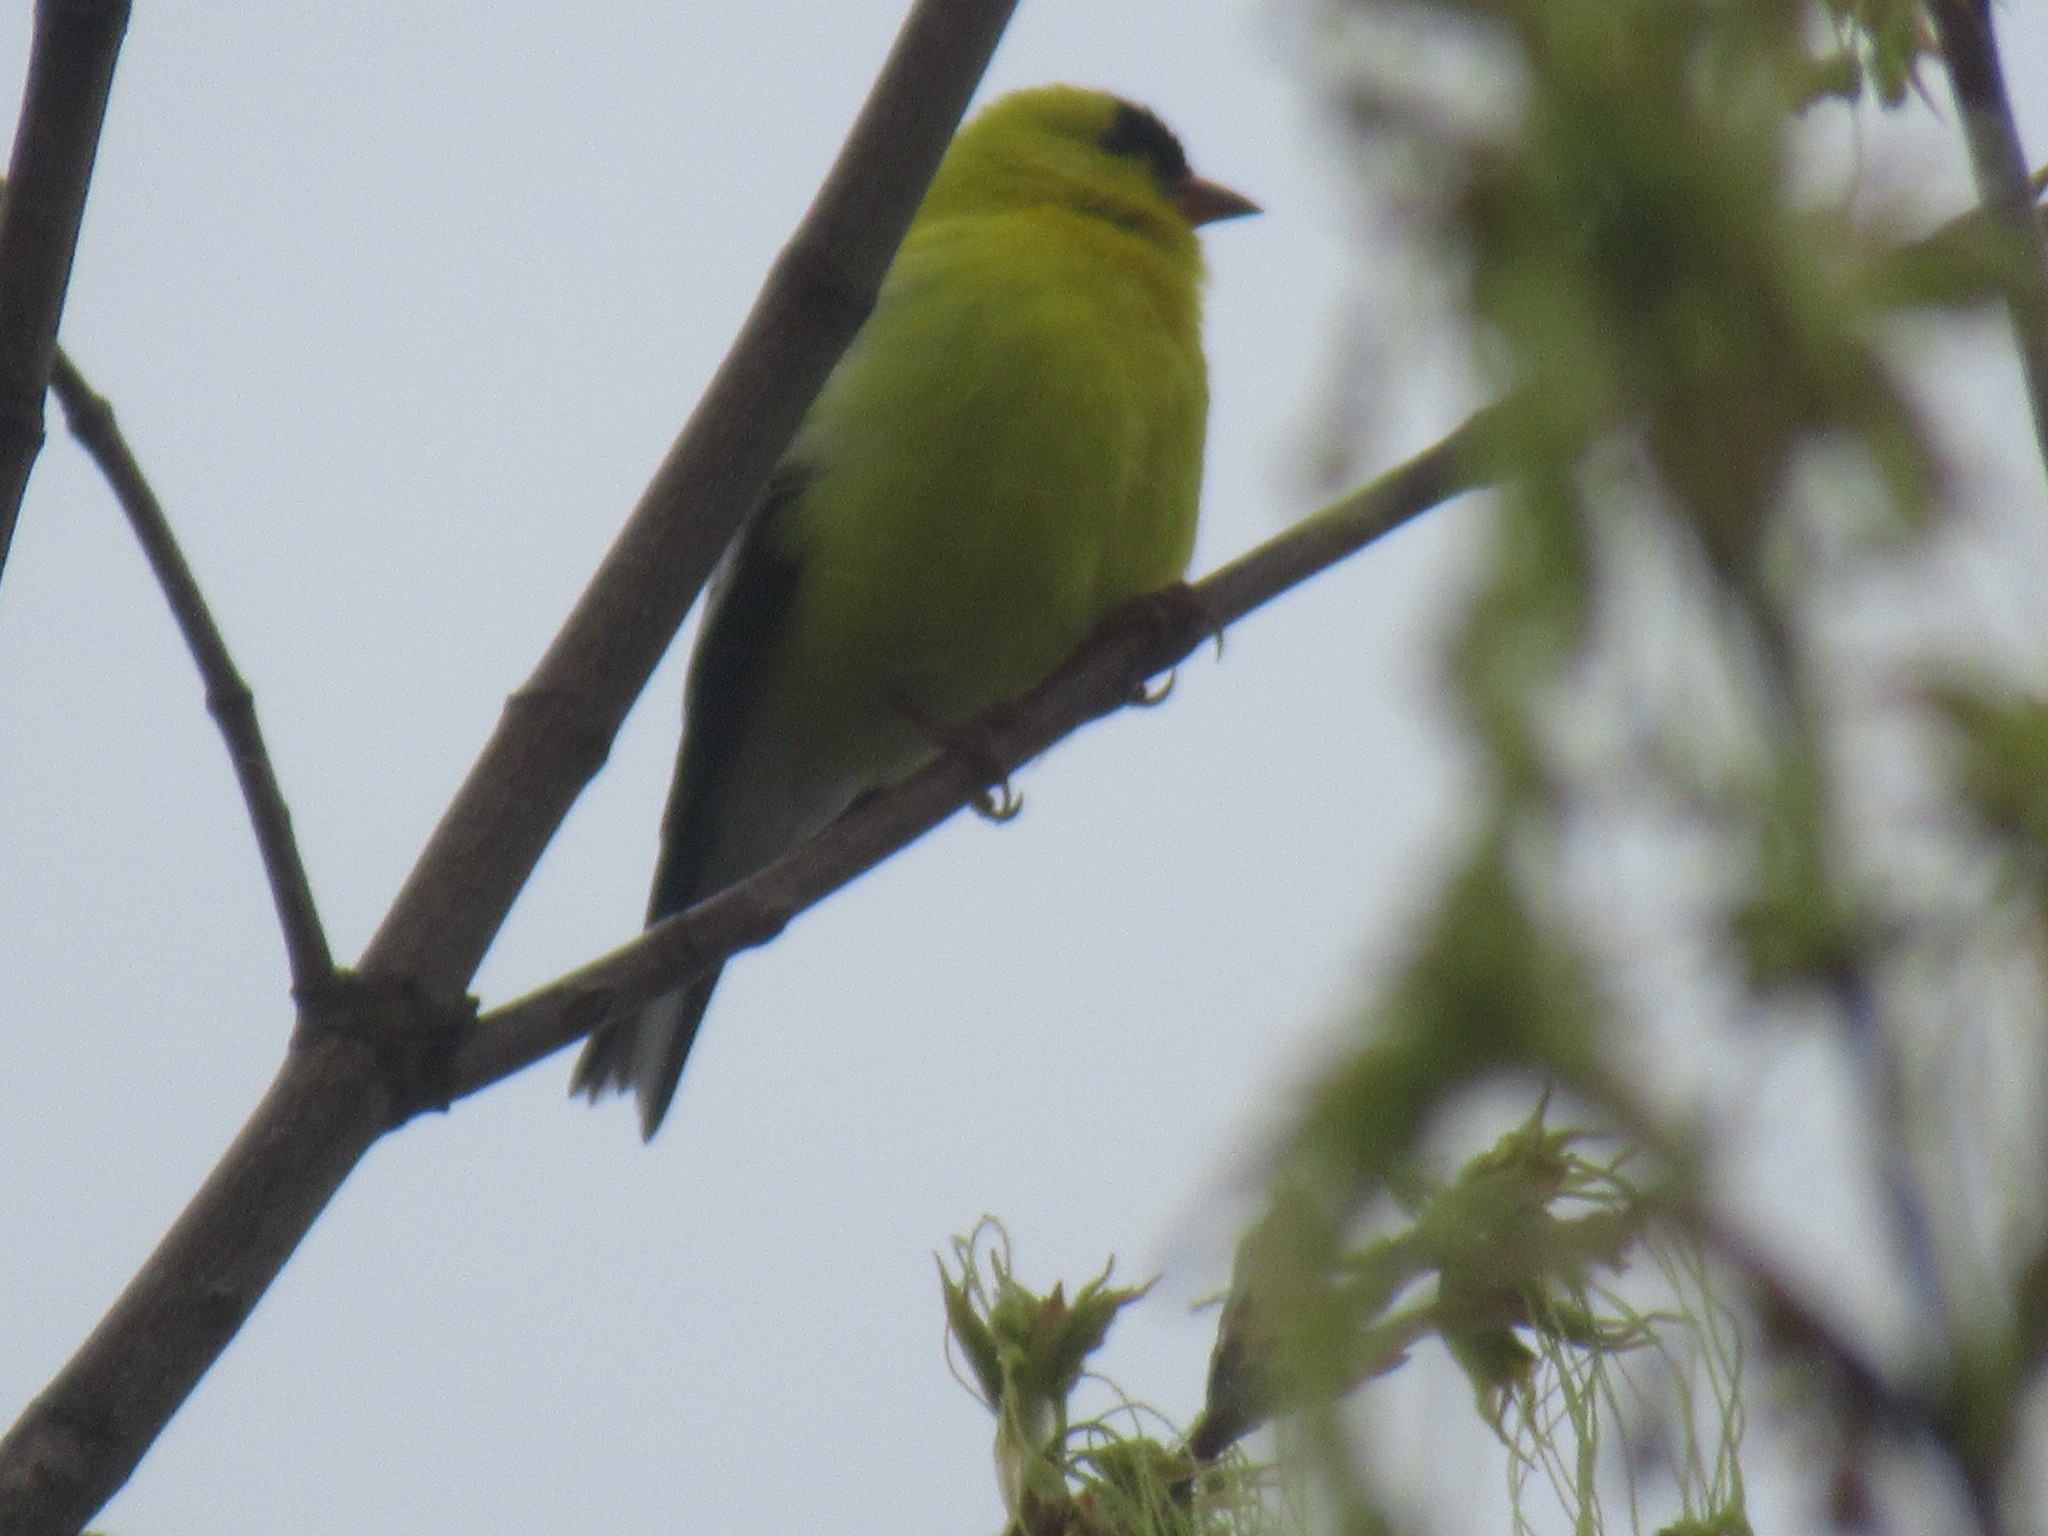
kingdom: Animalia
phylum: Chordata
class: Aves
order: Passeriformes
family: Fringillidae
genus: Spinus
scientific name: Spinus tristis
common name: American goldfinch
